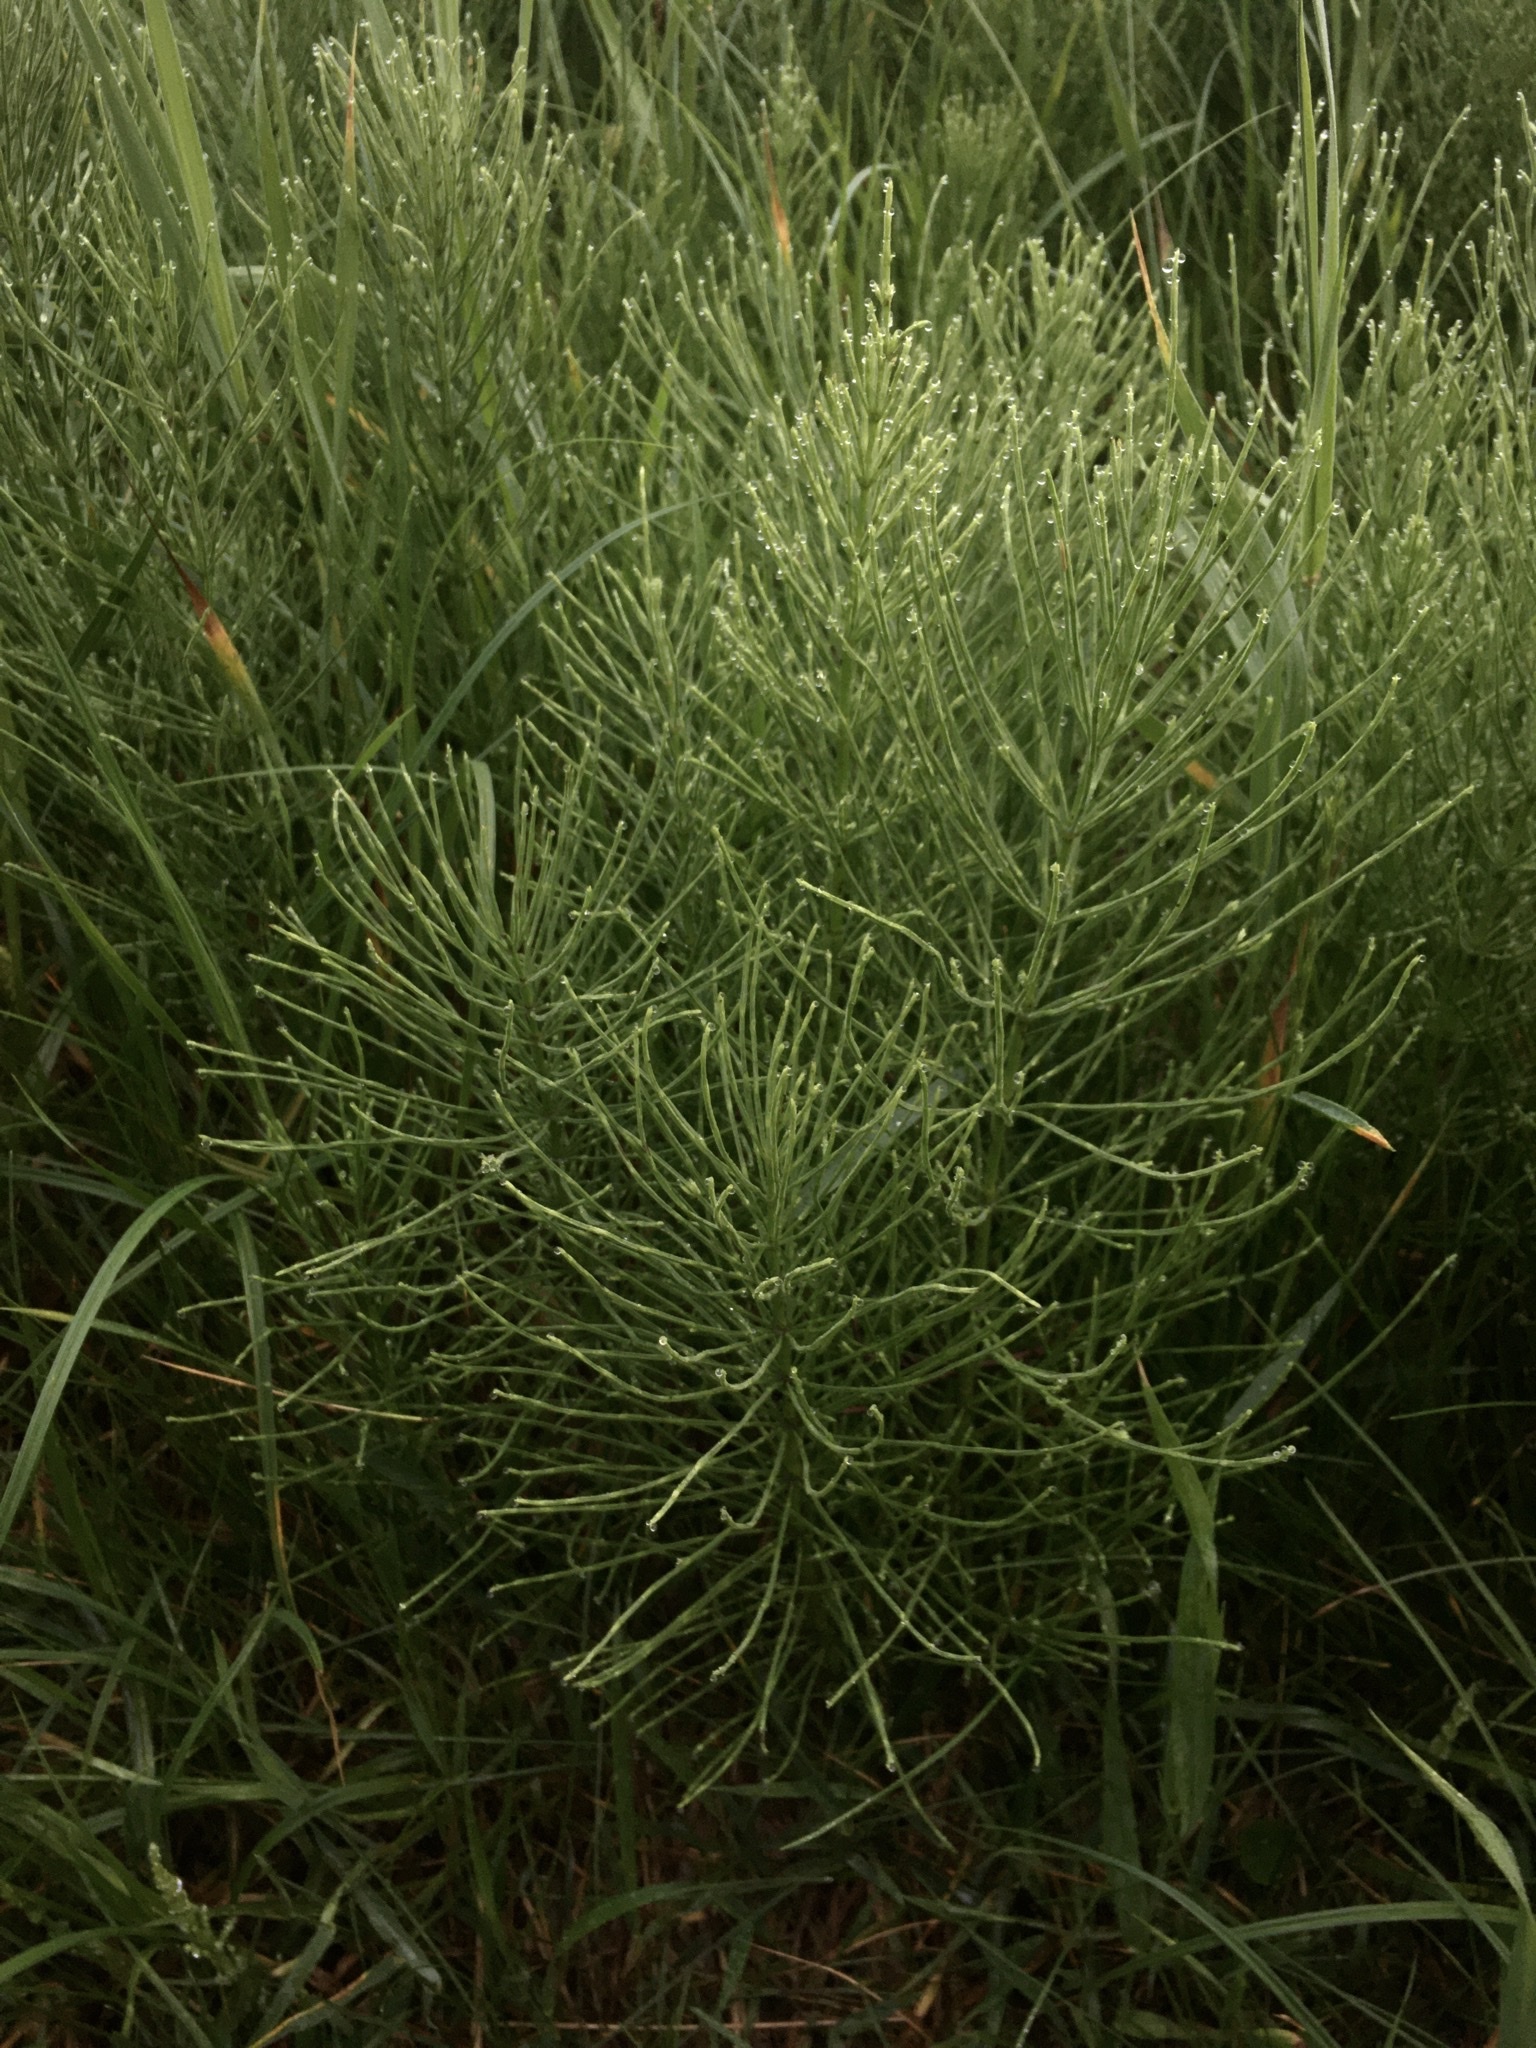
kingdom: Plantae
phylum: Tracheophyta
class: Polypodiopsida
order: Equisetales
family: Equisetaceae
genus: Equisetum
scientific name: Equisetum arvense
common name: Field horsetail
